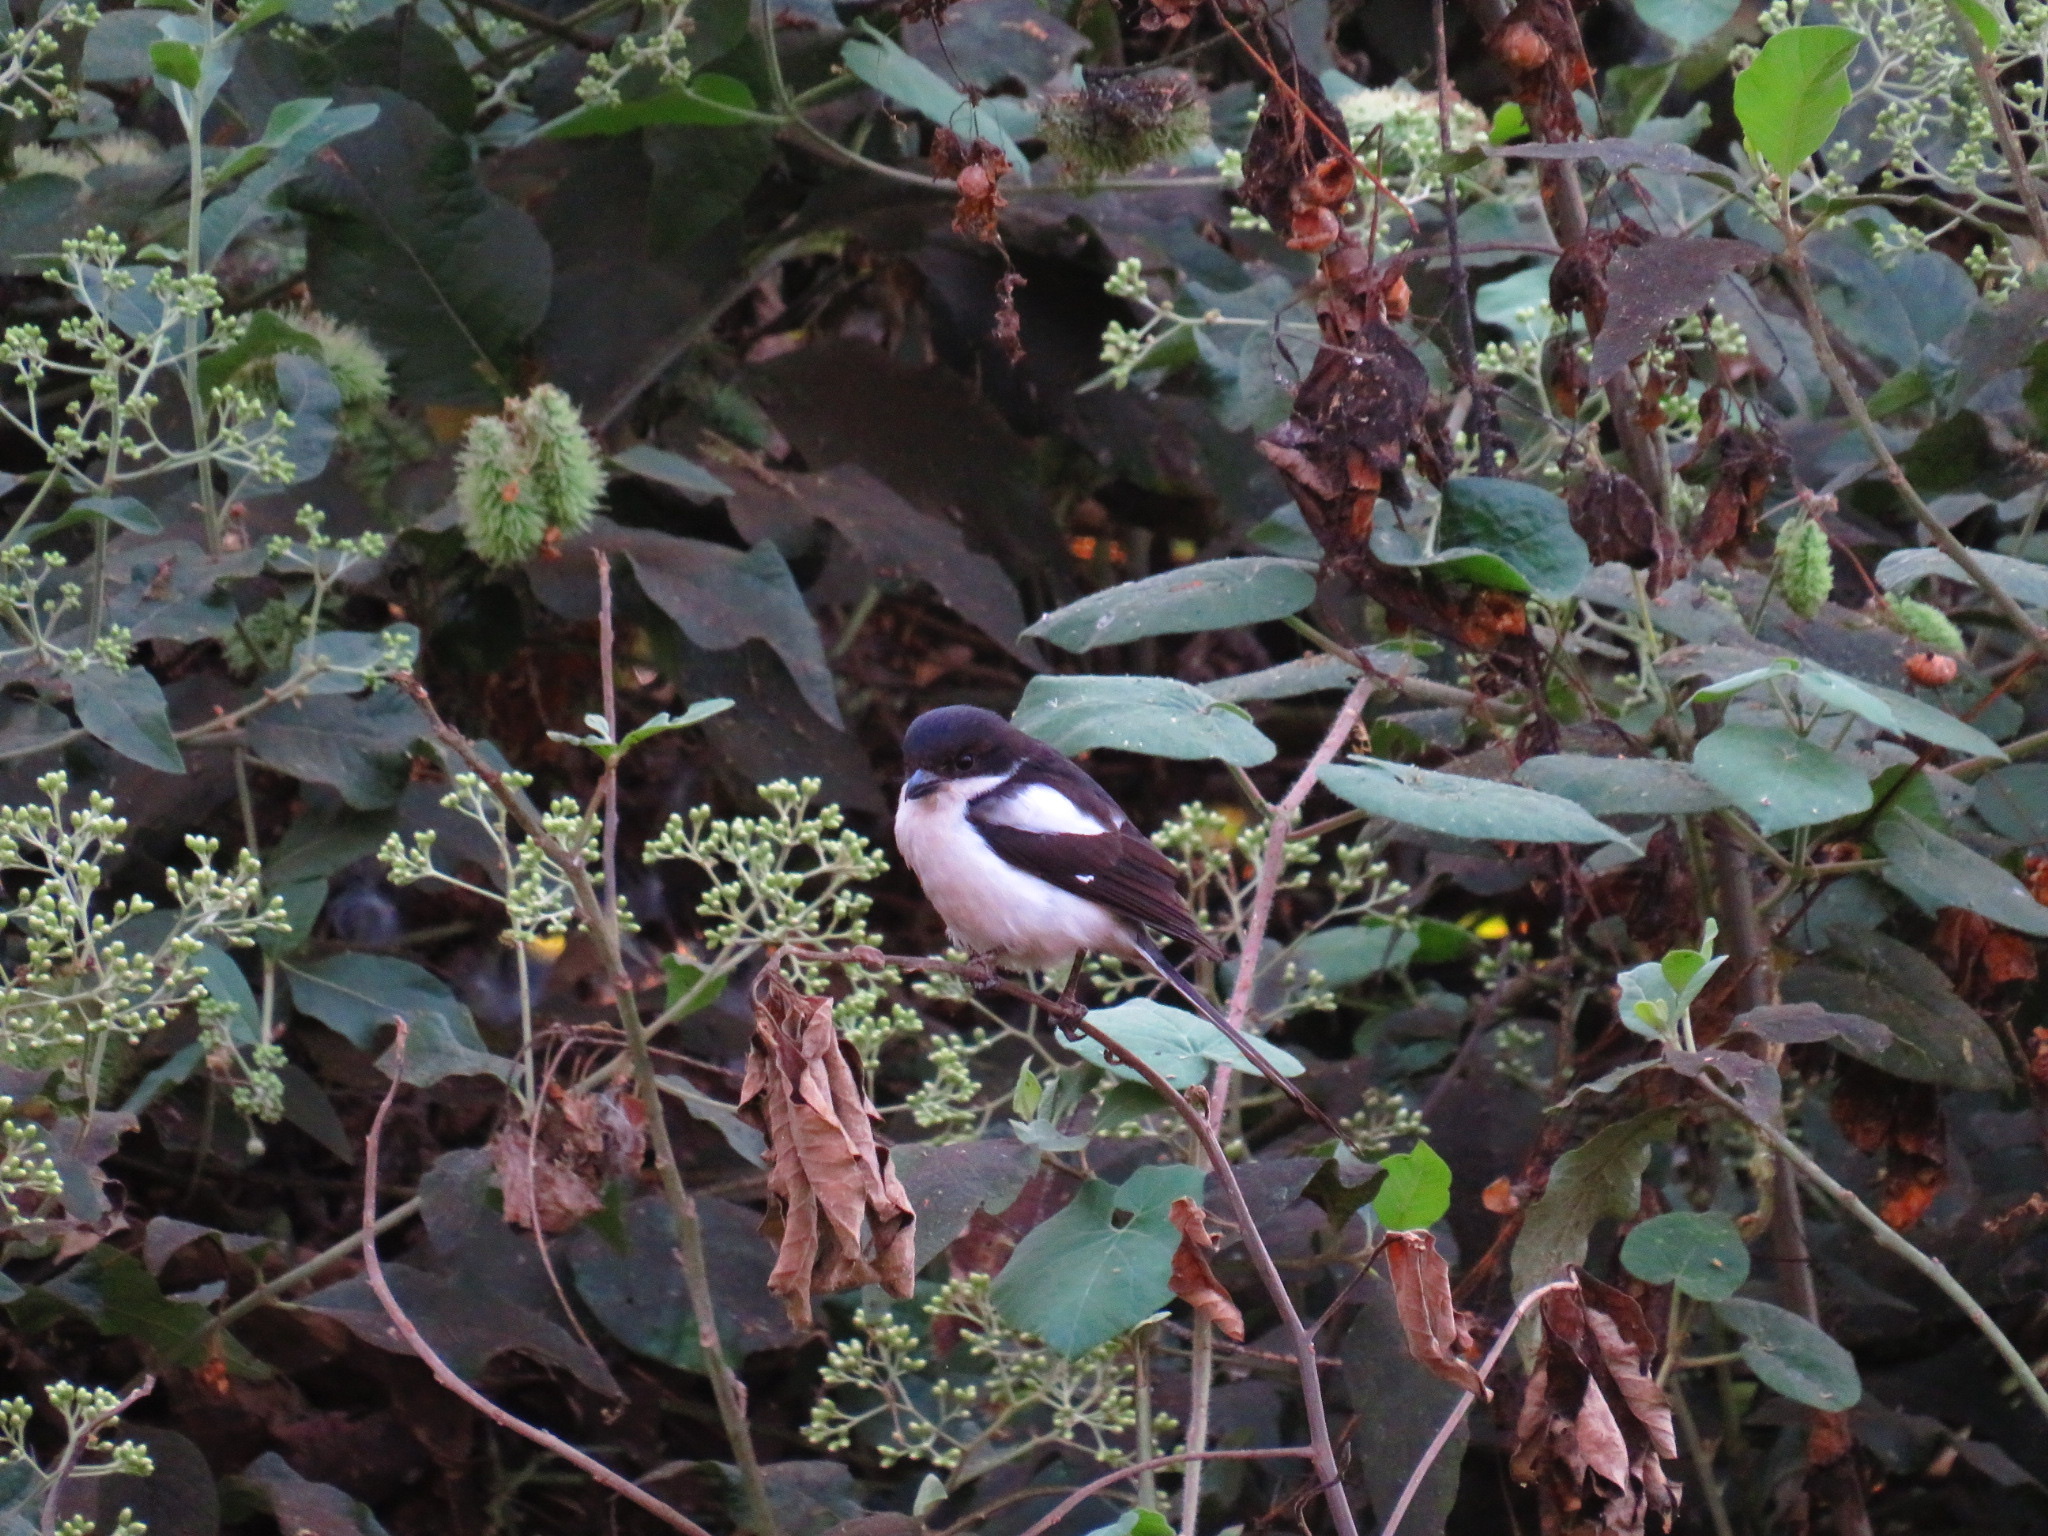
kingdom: Animalia
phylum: Chordata
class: Aves
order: Passeriformes
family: Laniidae
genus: Lanius
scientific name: Lanius humeralis
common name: Northern fiscal
